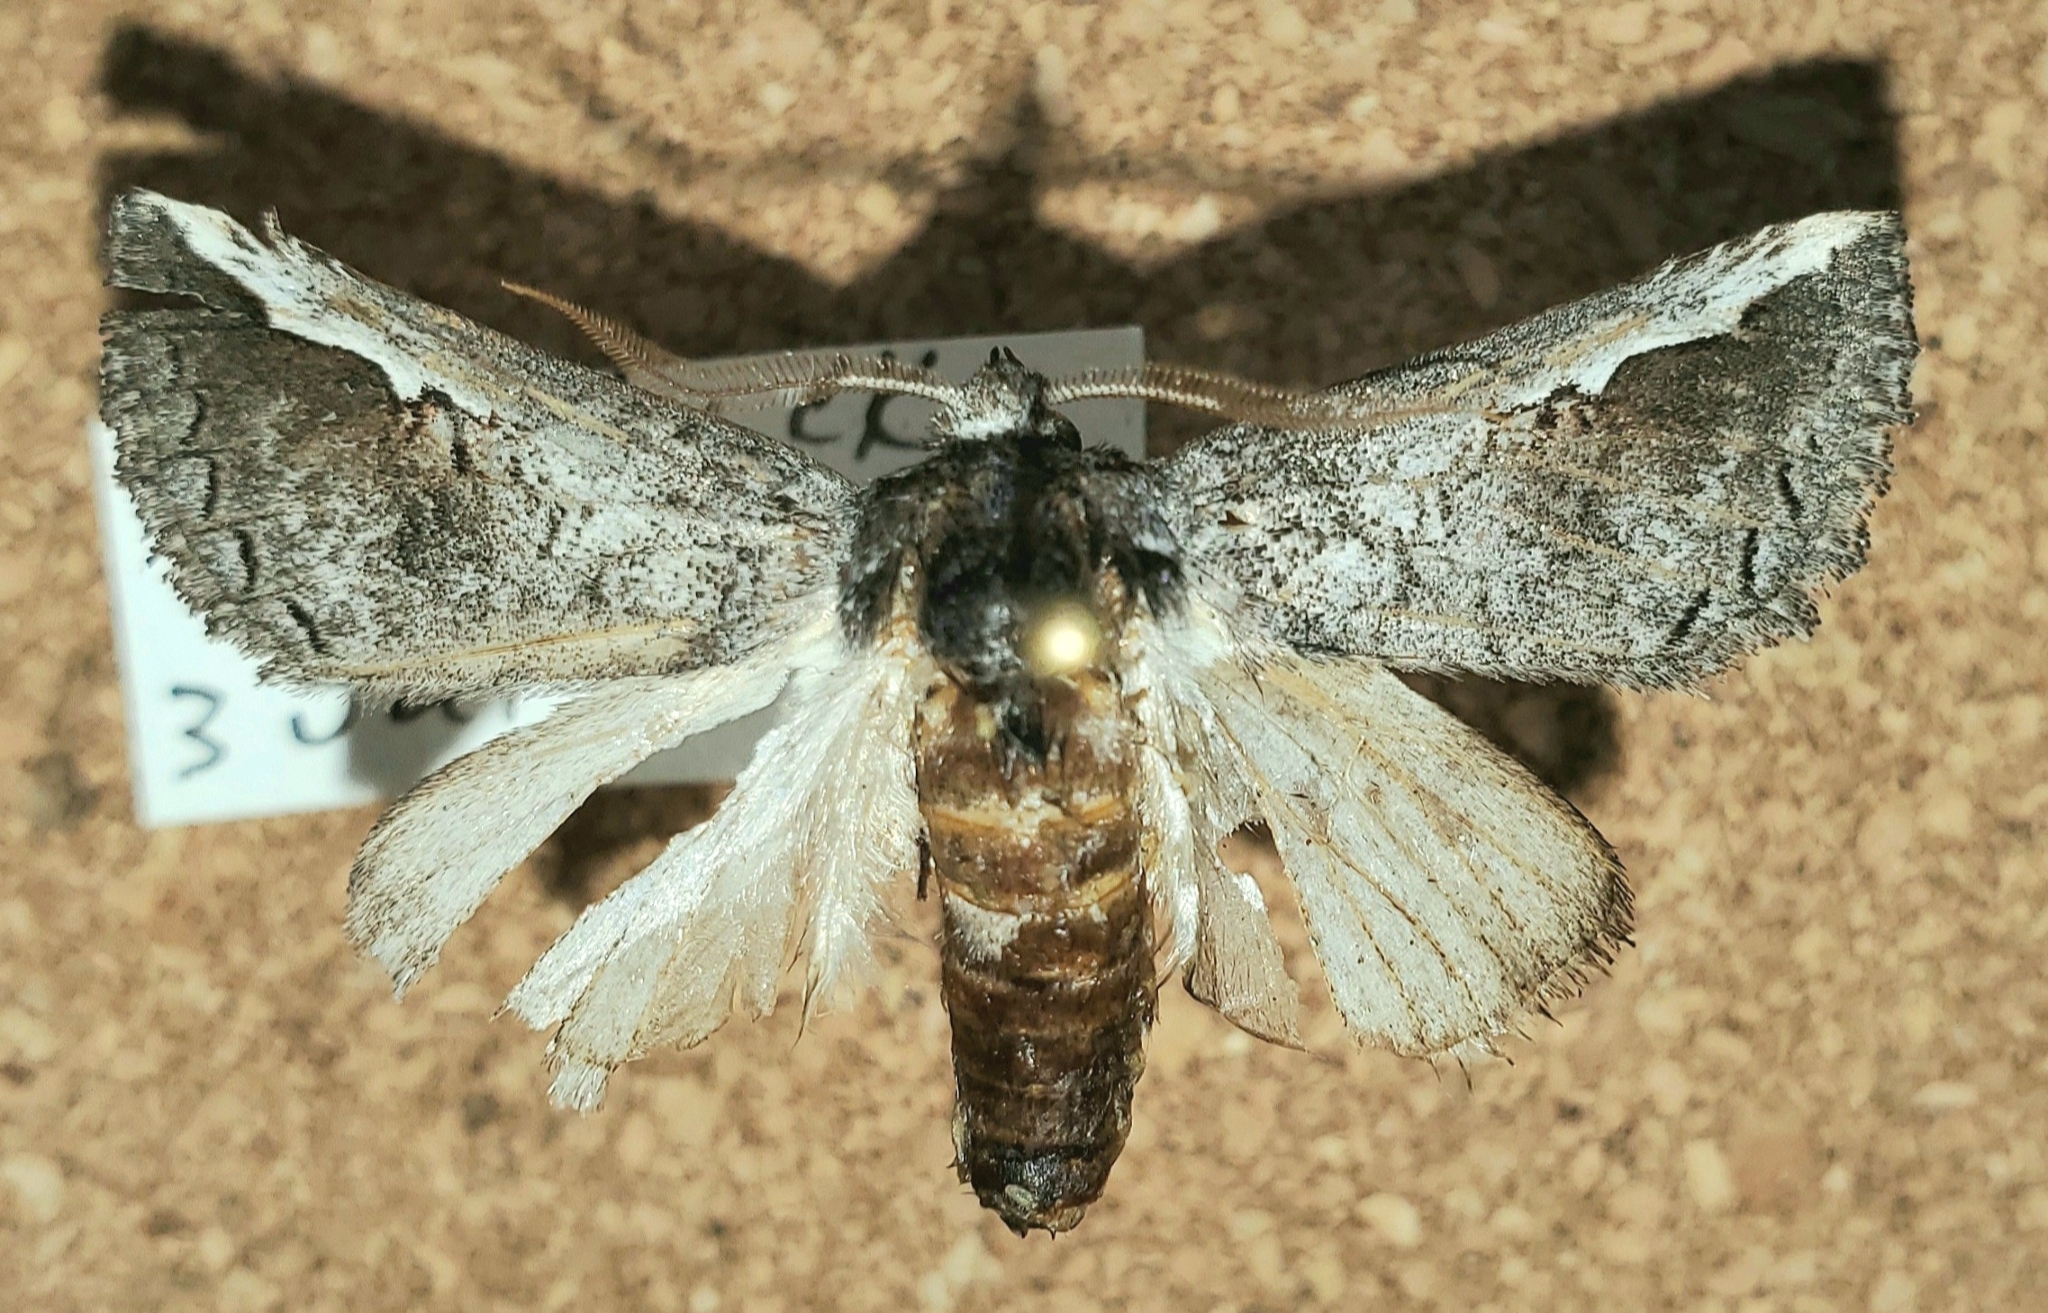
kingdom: Animalia
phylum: Arthropoda
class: Insecta
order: Lepidoptera
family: Notodontidae
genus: Symmerista
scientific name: Symmerista schmidti
